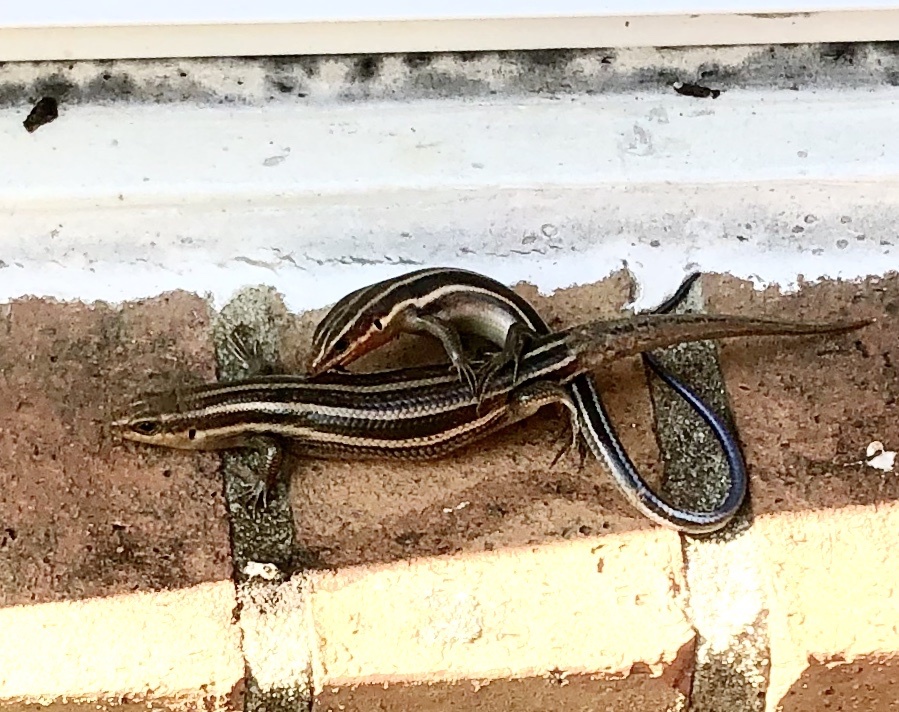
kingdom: Animalia
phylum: Chordata
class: Squamata
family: Scincidae
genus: Plestiodon
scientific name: Plestiodon fasciatus
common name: Five-lined skink
